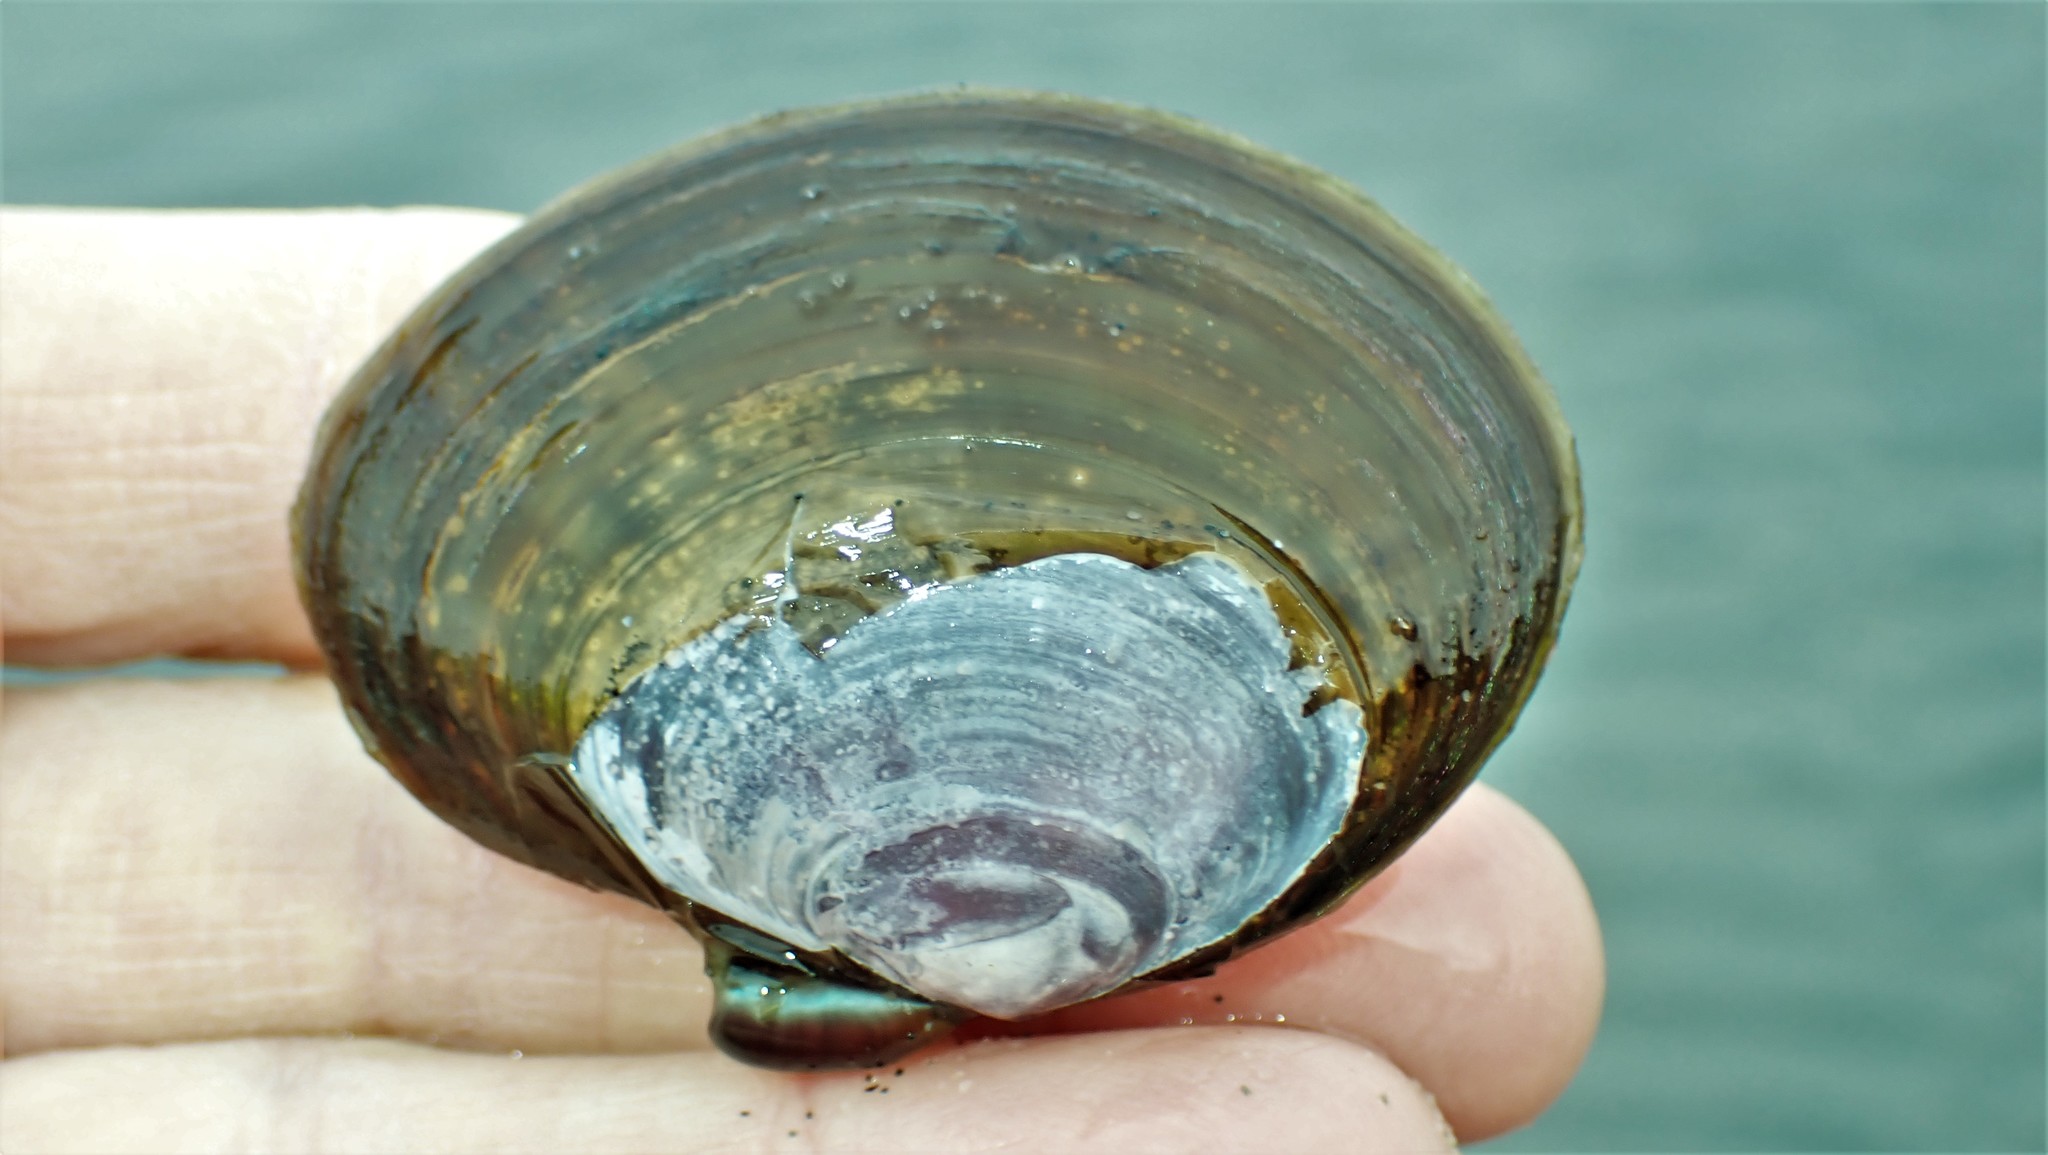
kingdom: Animalia
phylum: Mollusca
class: Bivalvia
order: Cardiida
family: Psammobiidae
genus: Nuttallia
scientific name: Nuttallia obscurata
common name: Purple mahogany-clam
